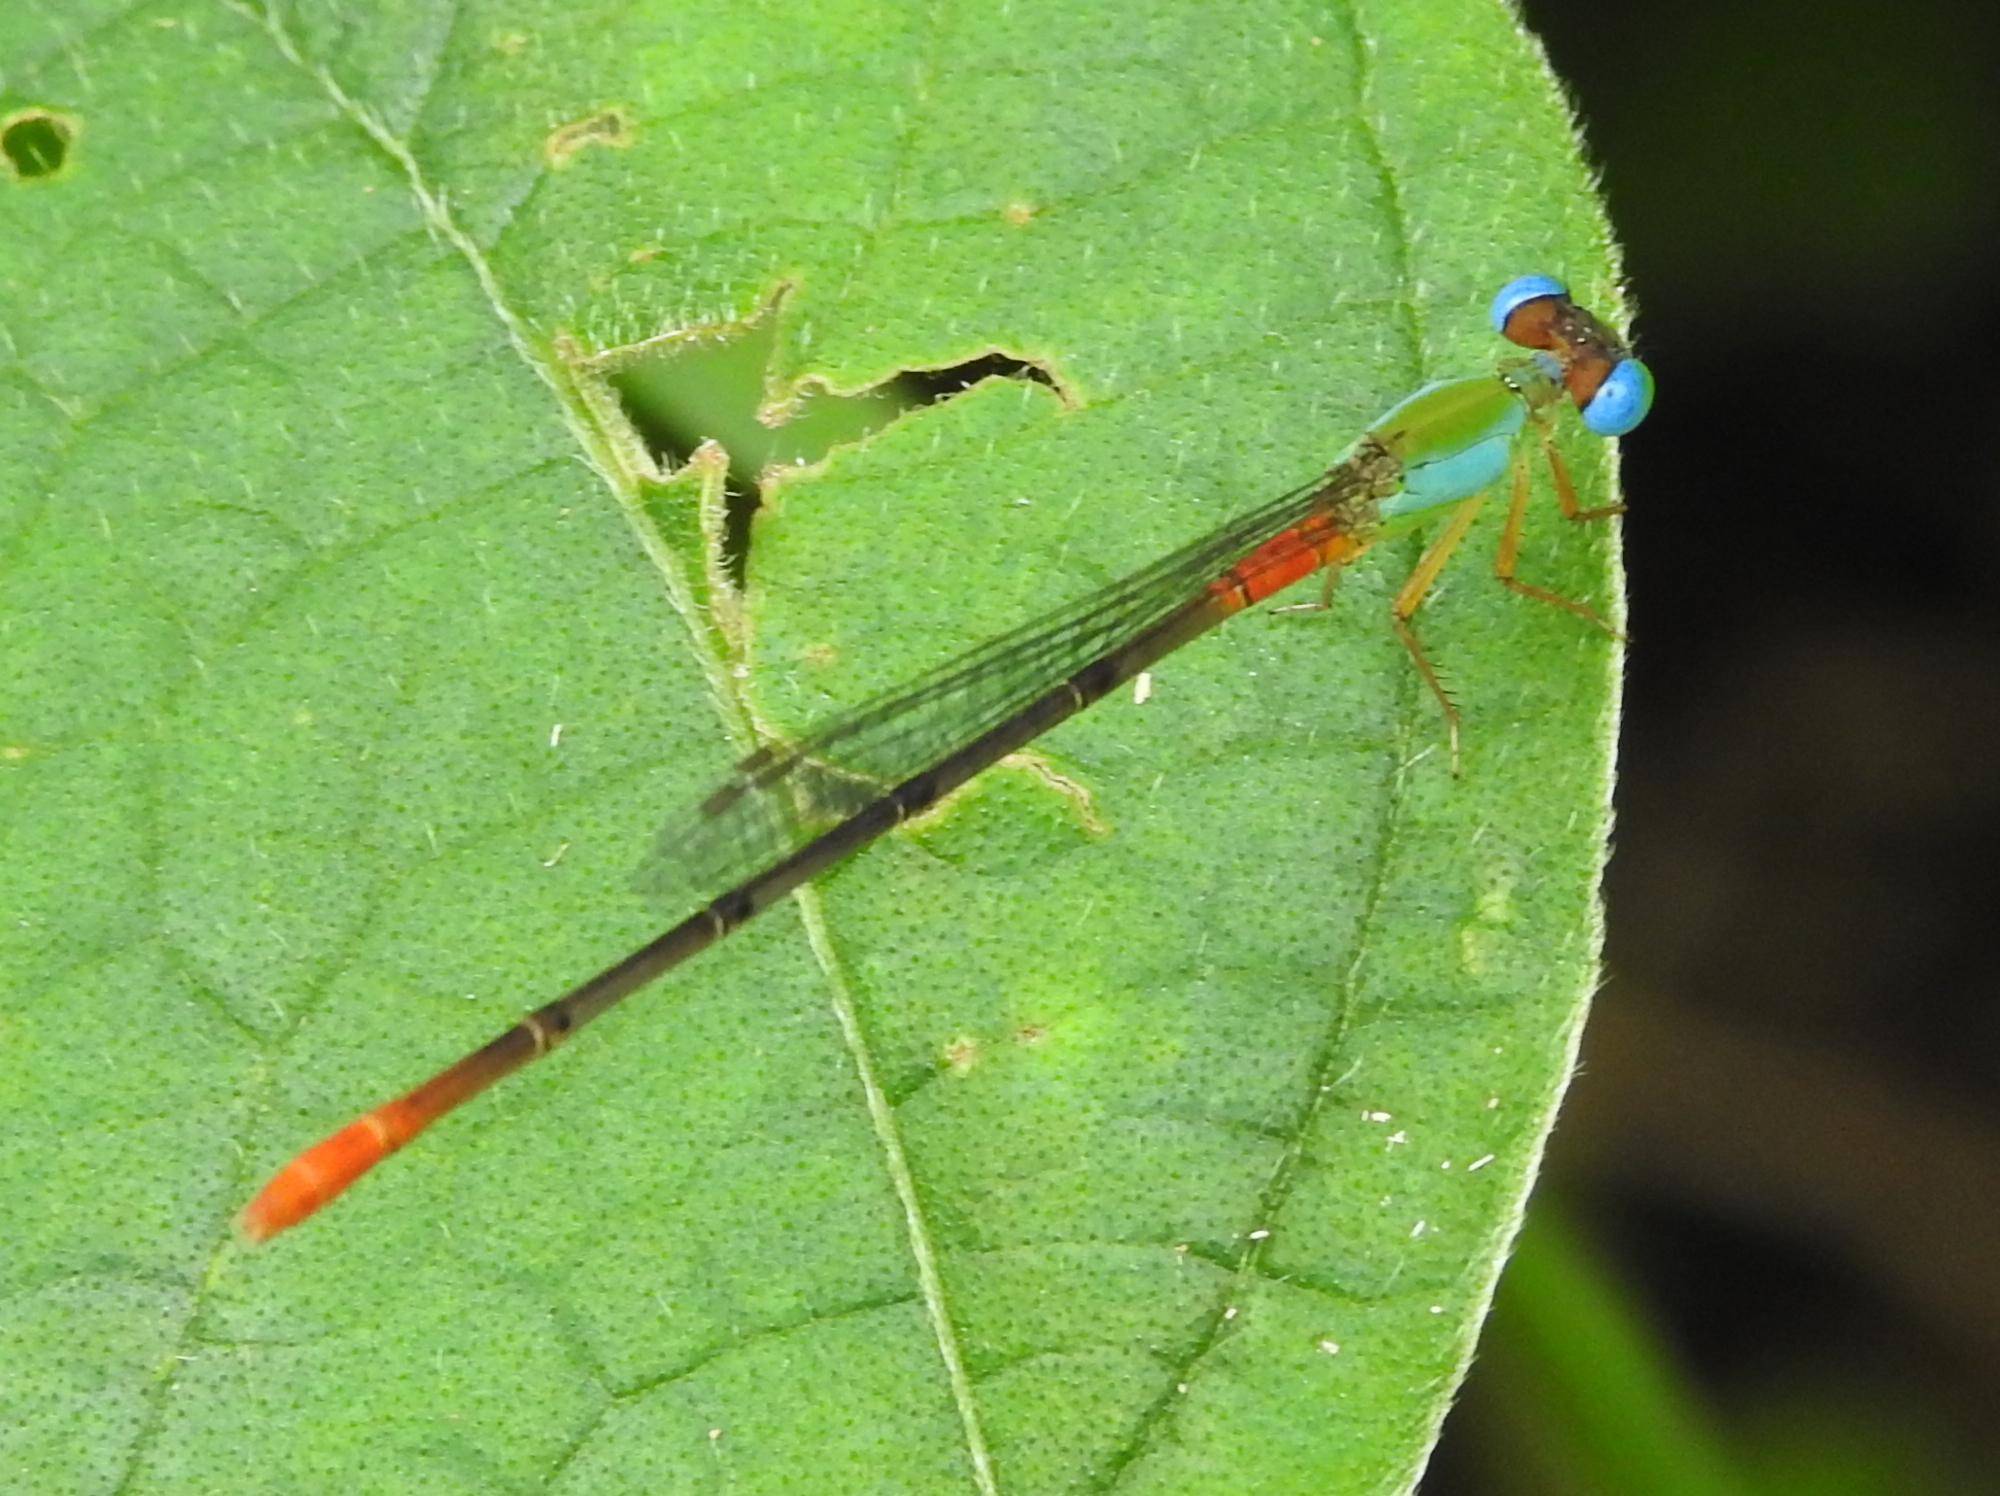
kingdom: Animalia
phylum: Arthropoda
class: Insecta
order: Odonata
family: Coenagrionidae
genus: Ceriagrion
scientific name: Ceriagrion cerinorubellum
